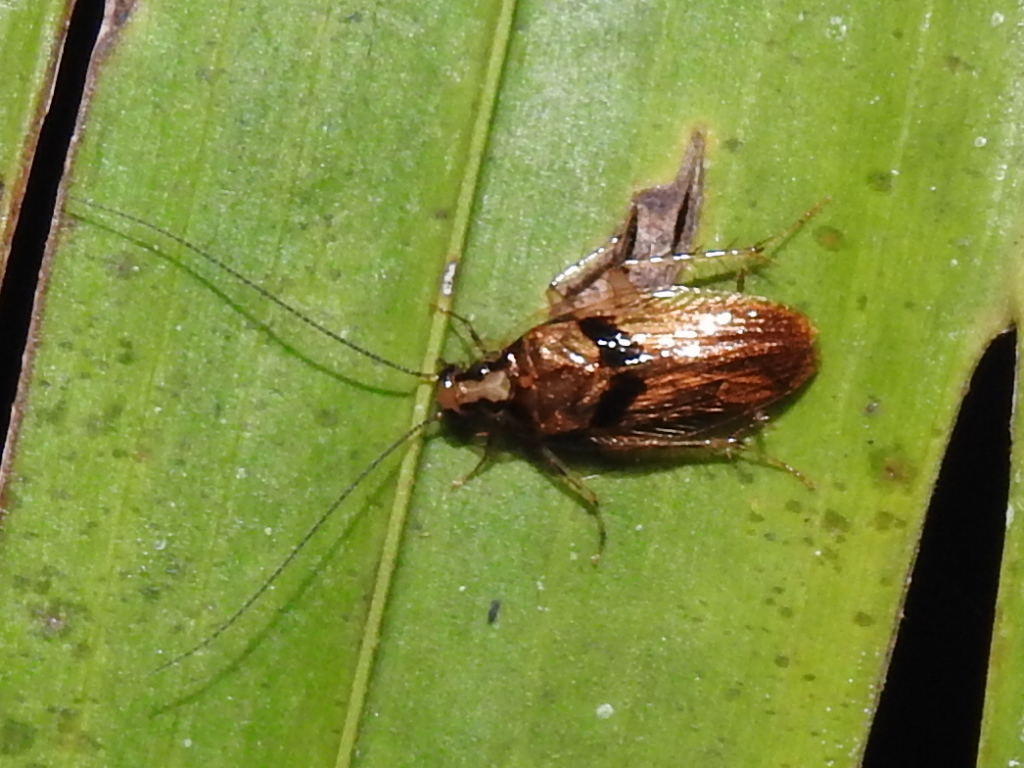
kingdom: Animalia
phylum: Arthropoda
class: Insecta
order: Blattodea
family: Anaplectidae
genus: Anaplecta
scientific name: Anaplecta hemiscotia
